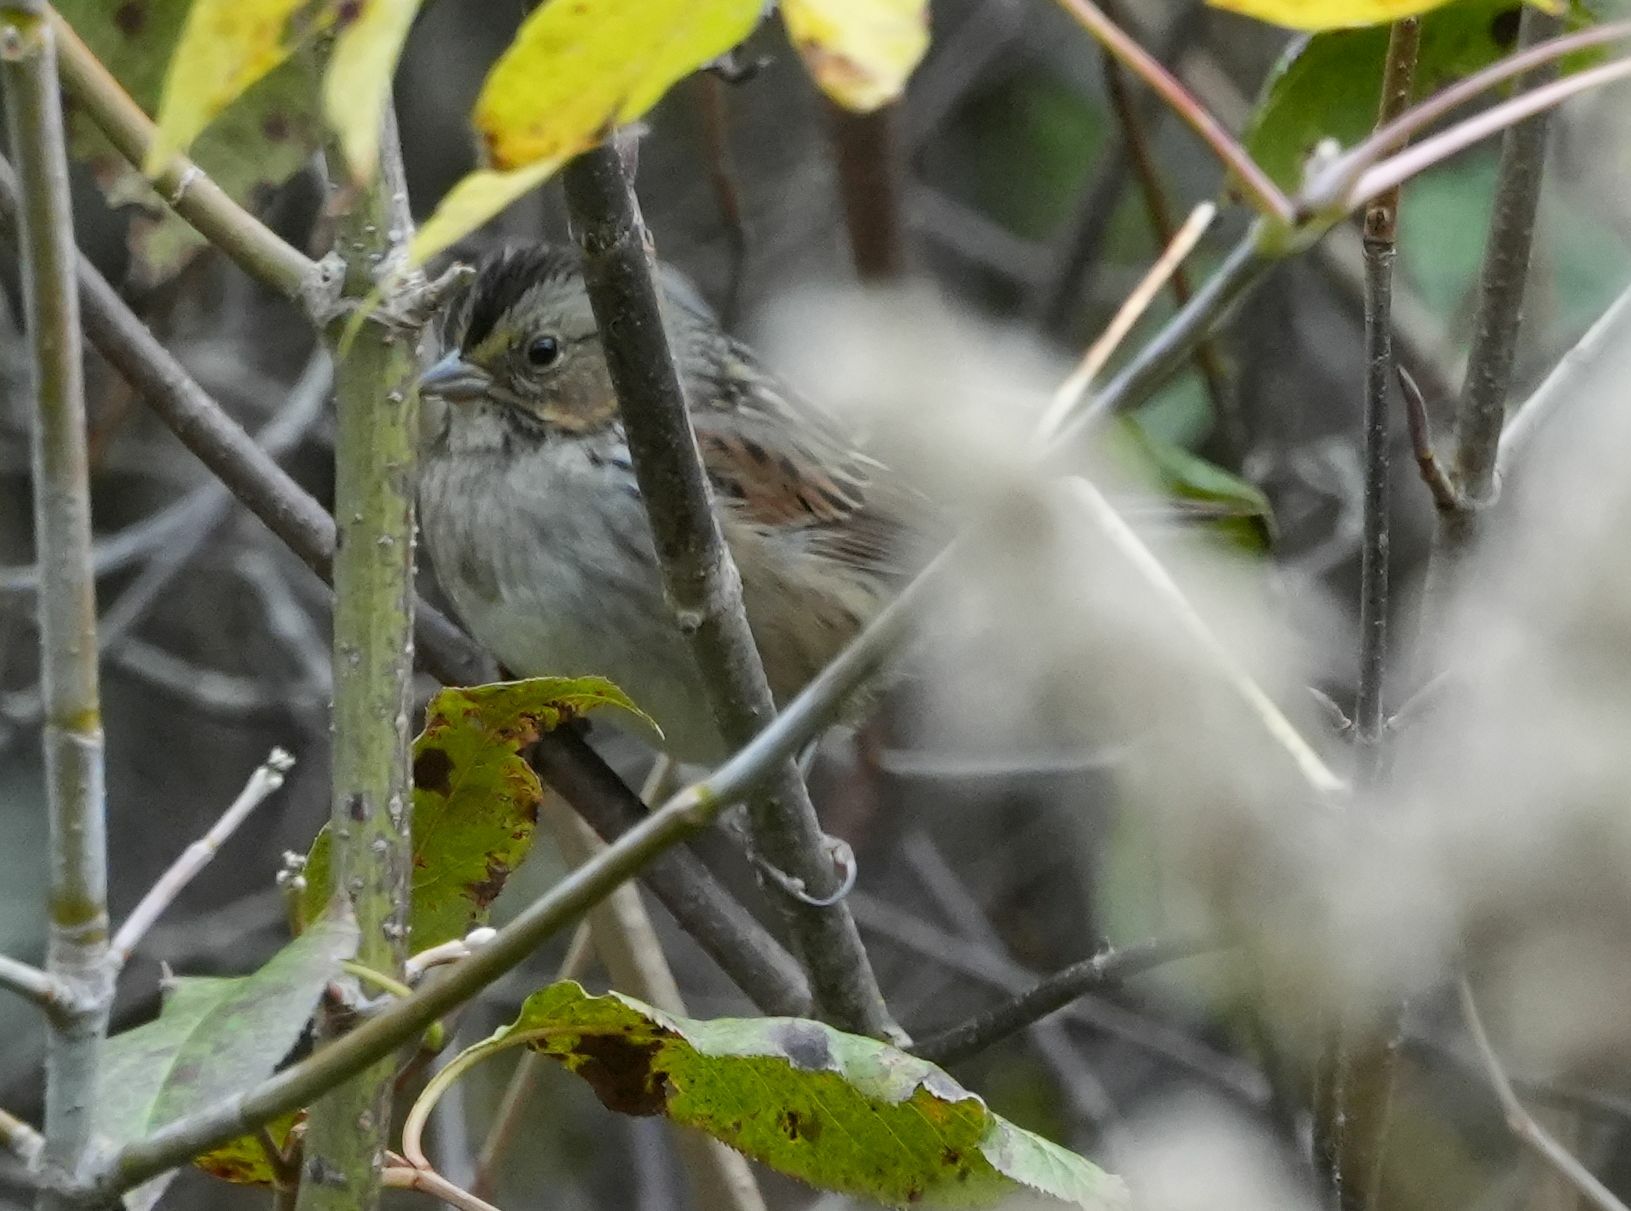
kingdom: Animalia
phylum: Chordata
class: Aves
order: Passeriformes
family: Passerellidae
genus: Melospiza
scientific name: Melospiza georgiana
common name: Swamp sparrow
